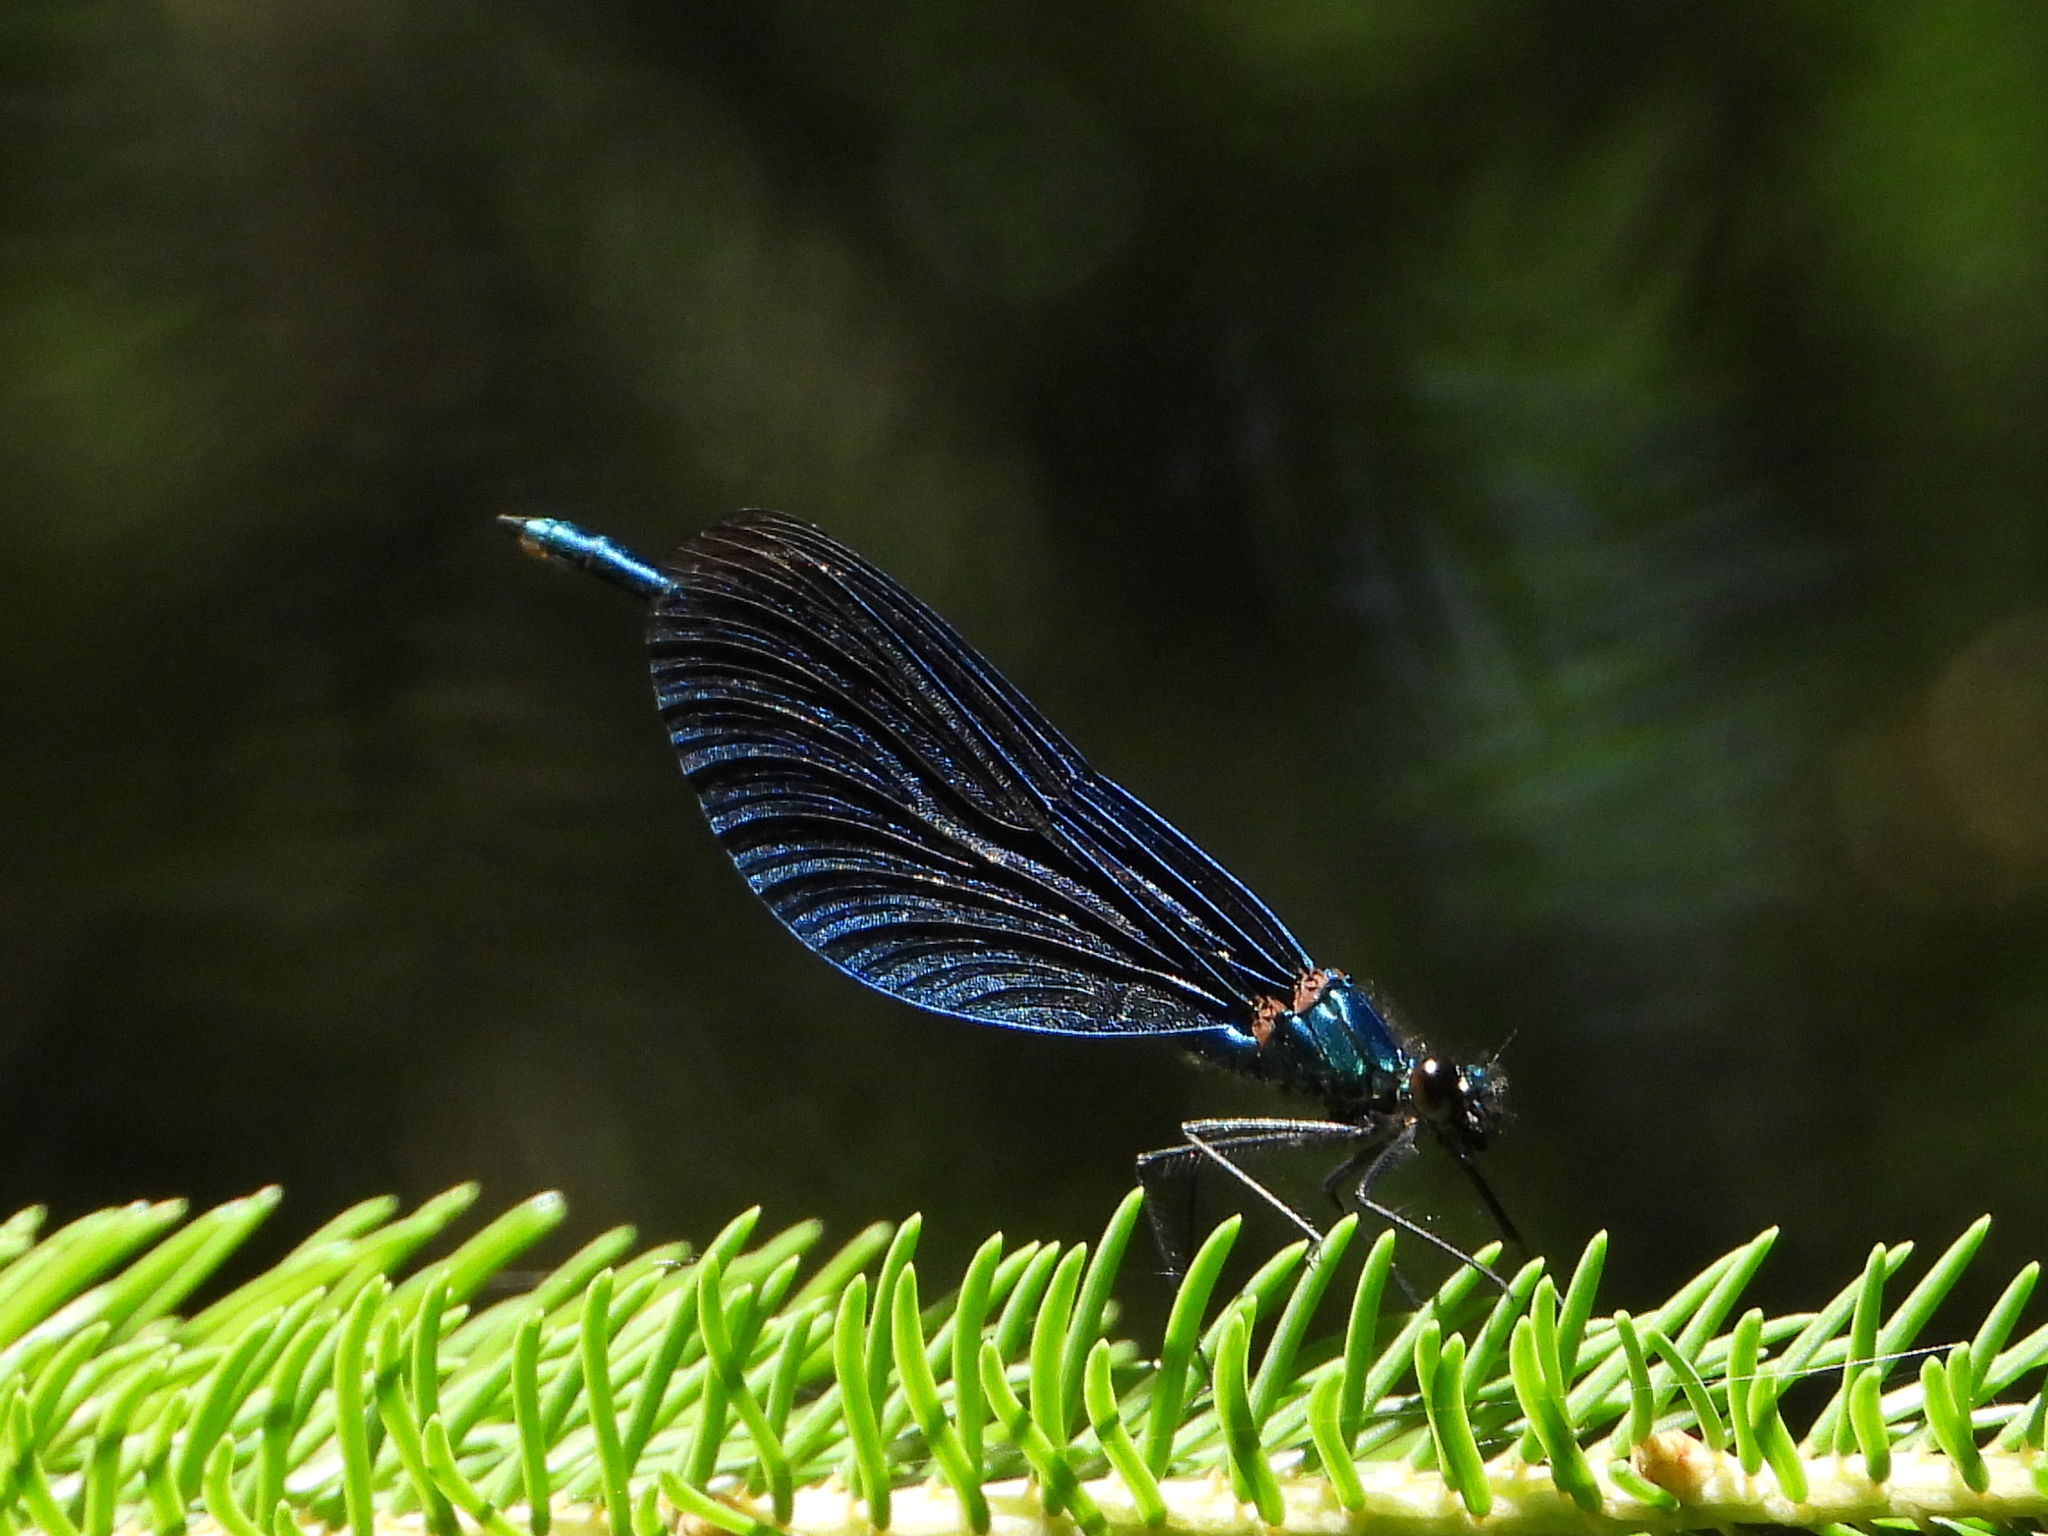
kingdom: Animalia
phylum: Arthropoda
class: Insecta
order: Odonata
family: Calopterygidae
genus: Calopteryx
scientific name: Calopteryx virgo
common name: Beautiful demoiselle
